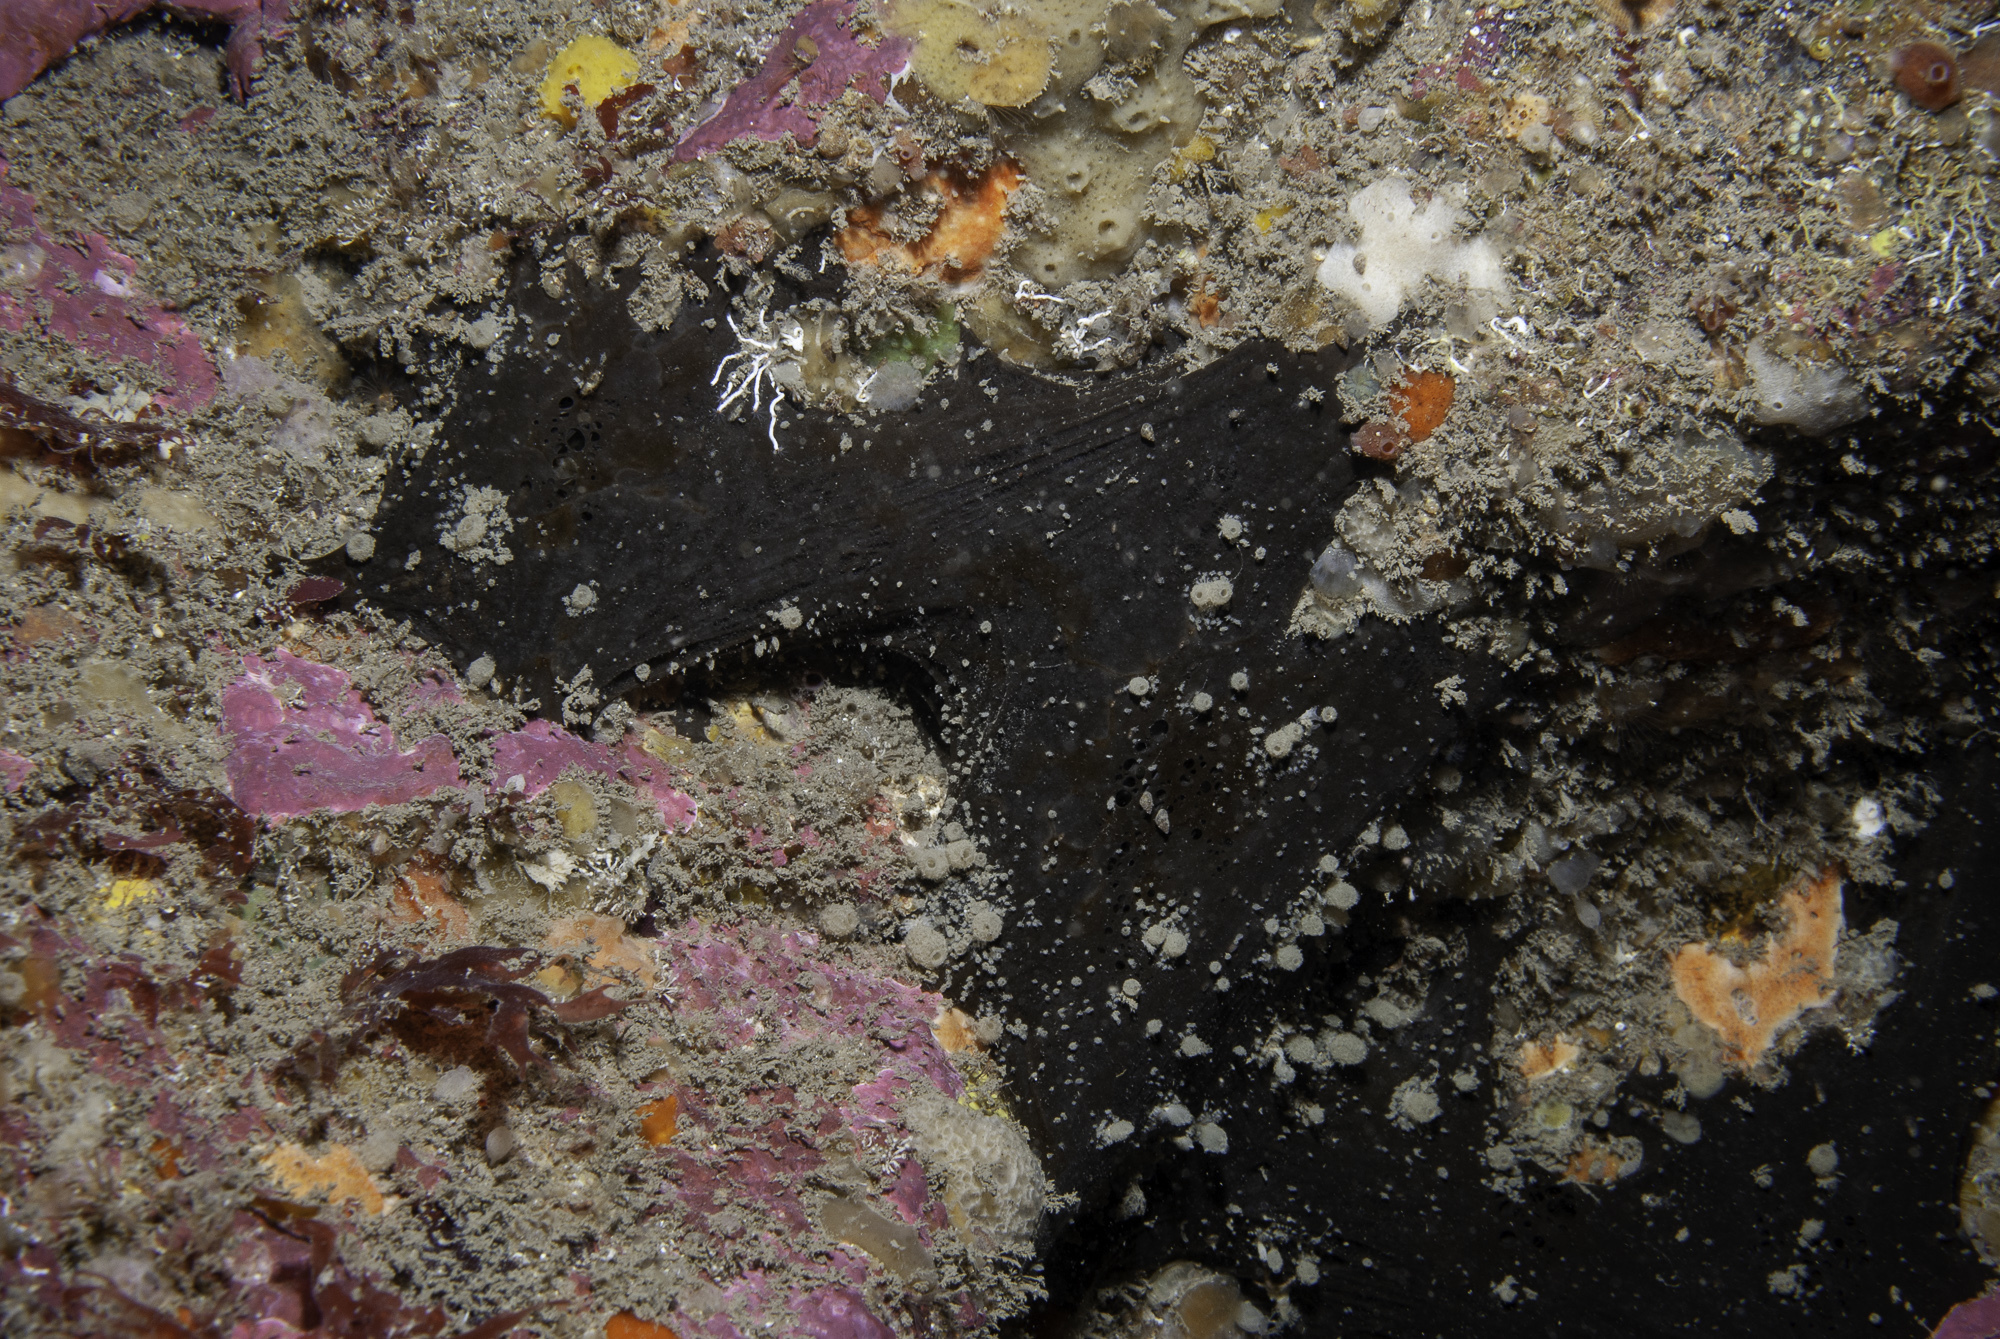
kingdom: Animalia
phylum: Porifera
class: Demospongiae
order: Tetractinellida
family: Ancorinidae
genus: Dercitus
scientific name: Dercitus bucklandi
